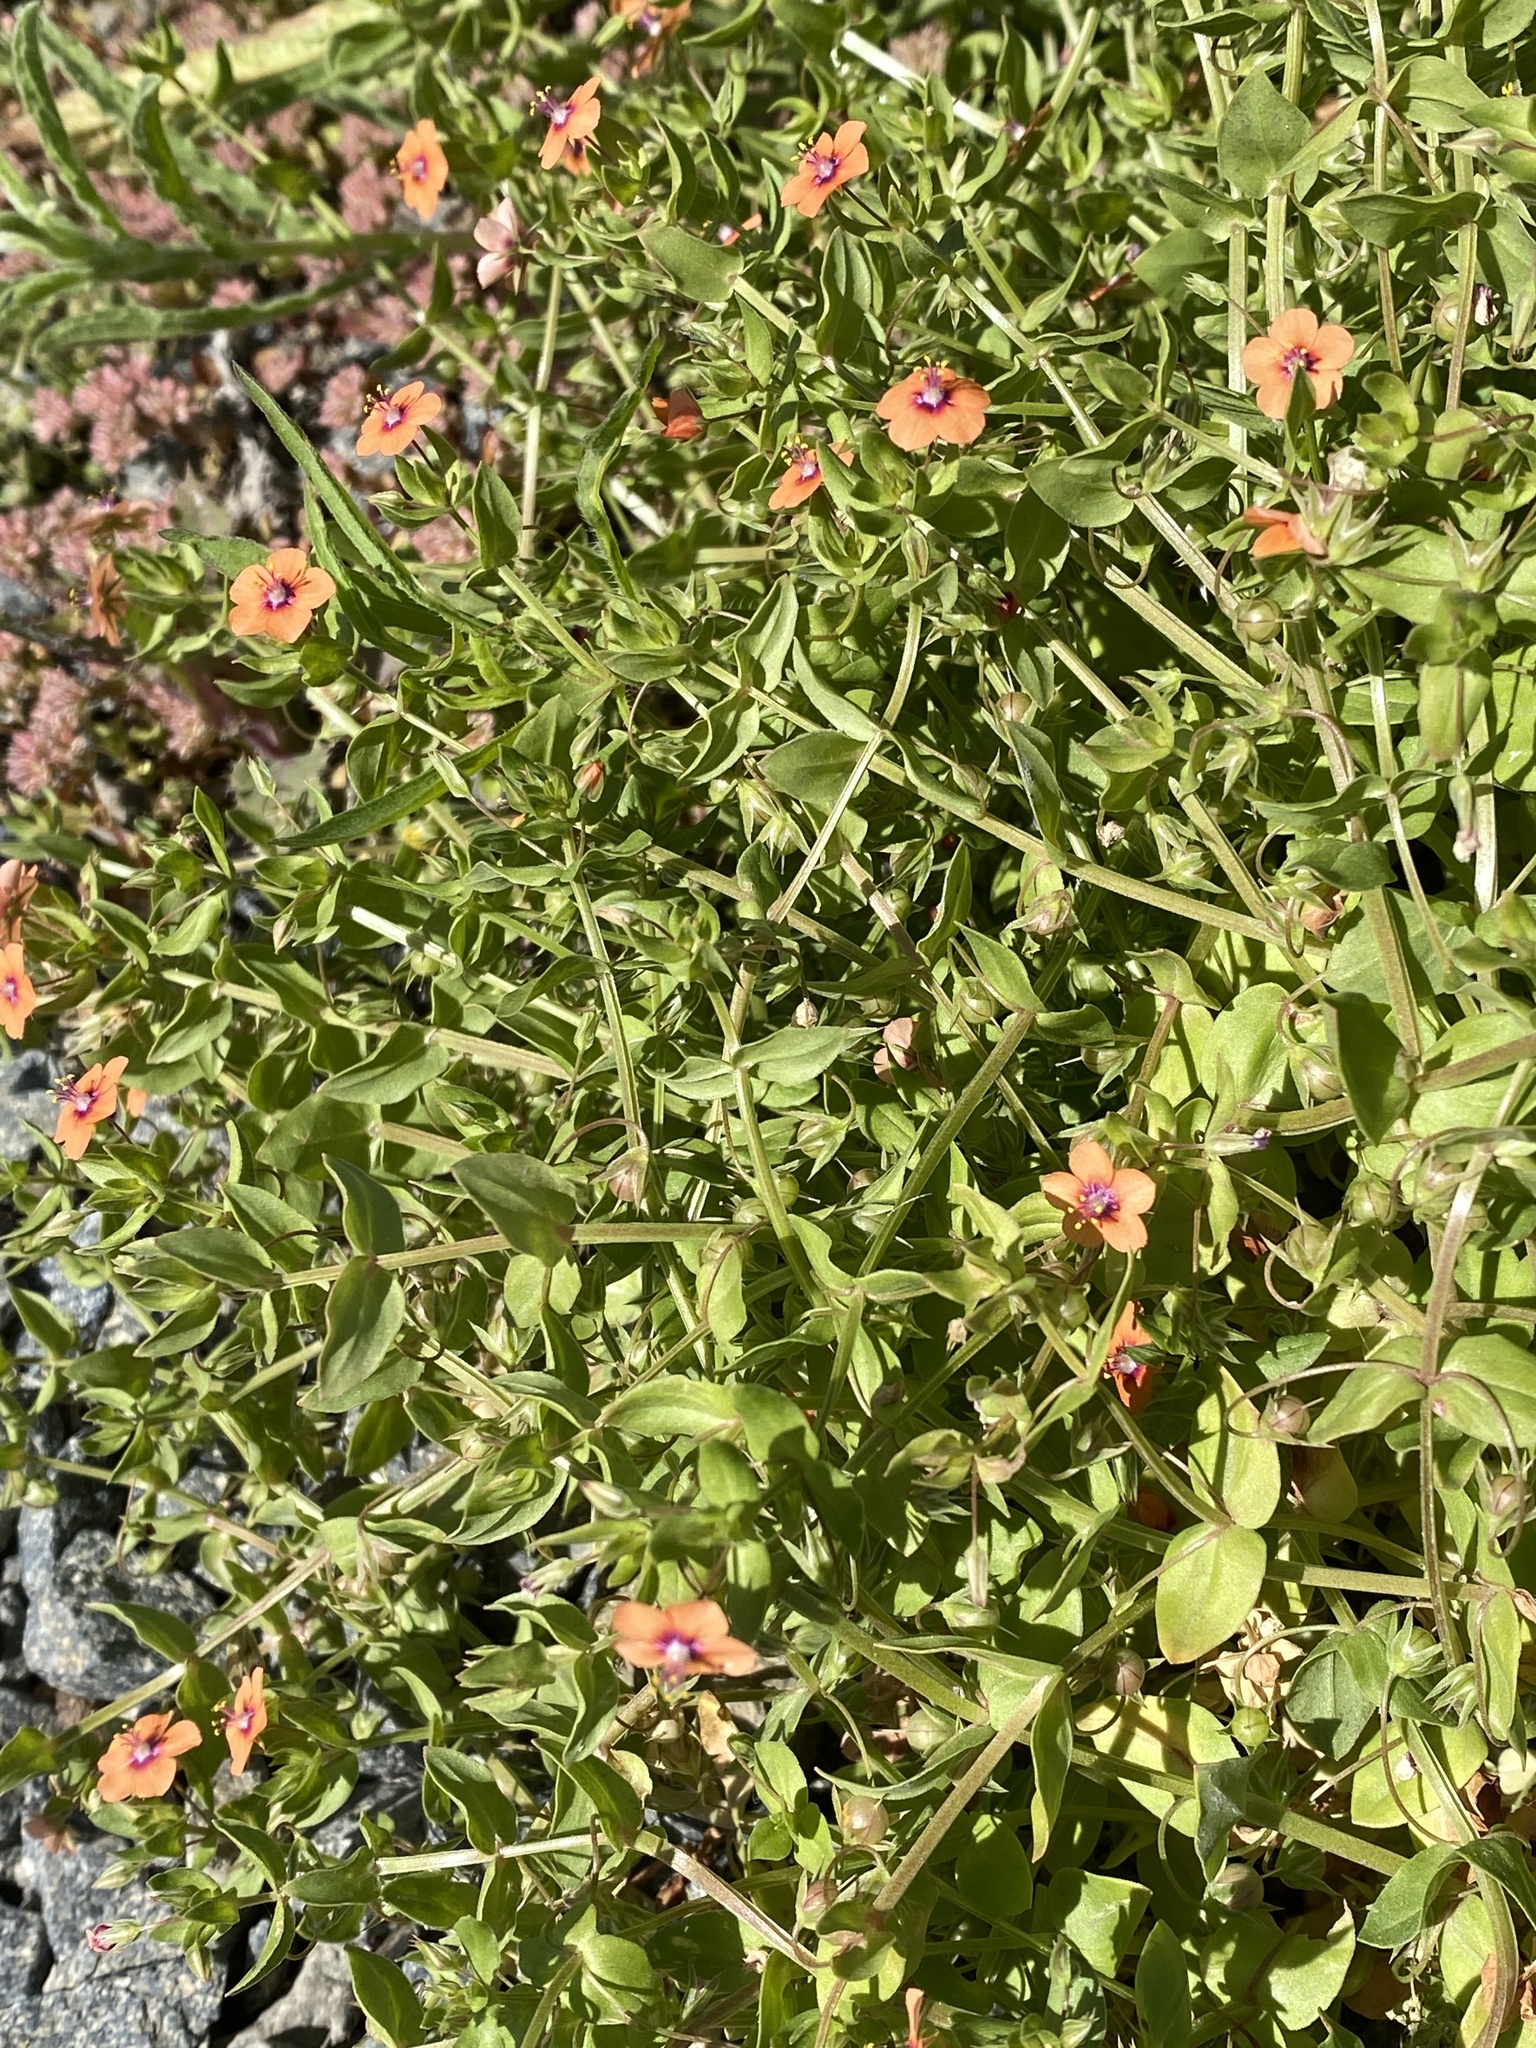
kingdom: Plantae
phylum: Tracheophyta
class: Magnoliopsida
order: Ericales
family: Primulaceae
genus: Lysimachia
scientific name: Lysimachia arvensis
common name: Scarlet pimpernel
